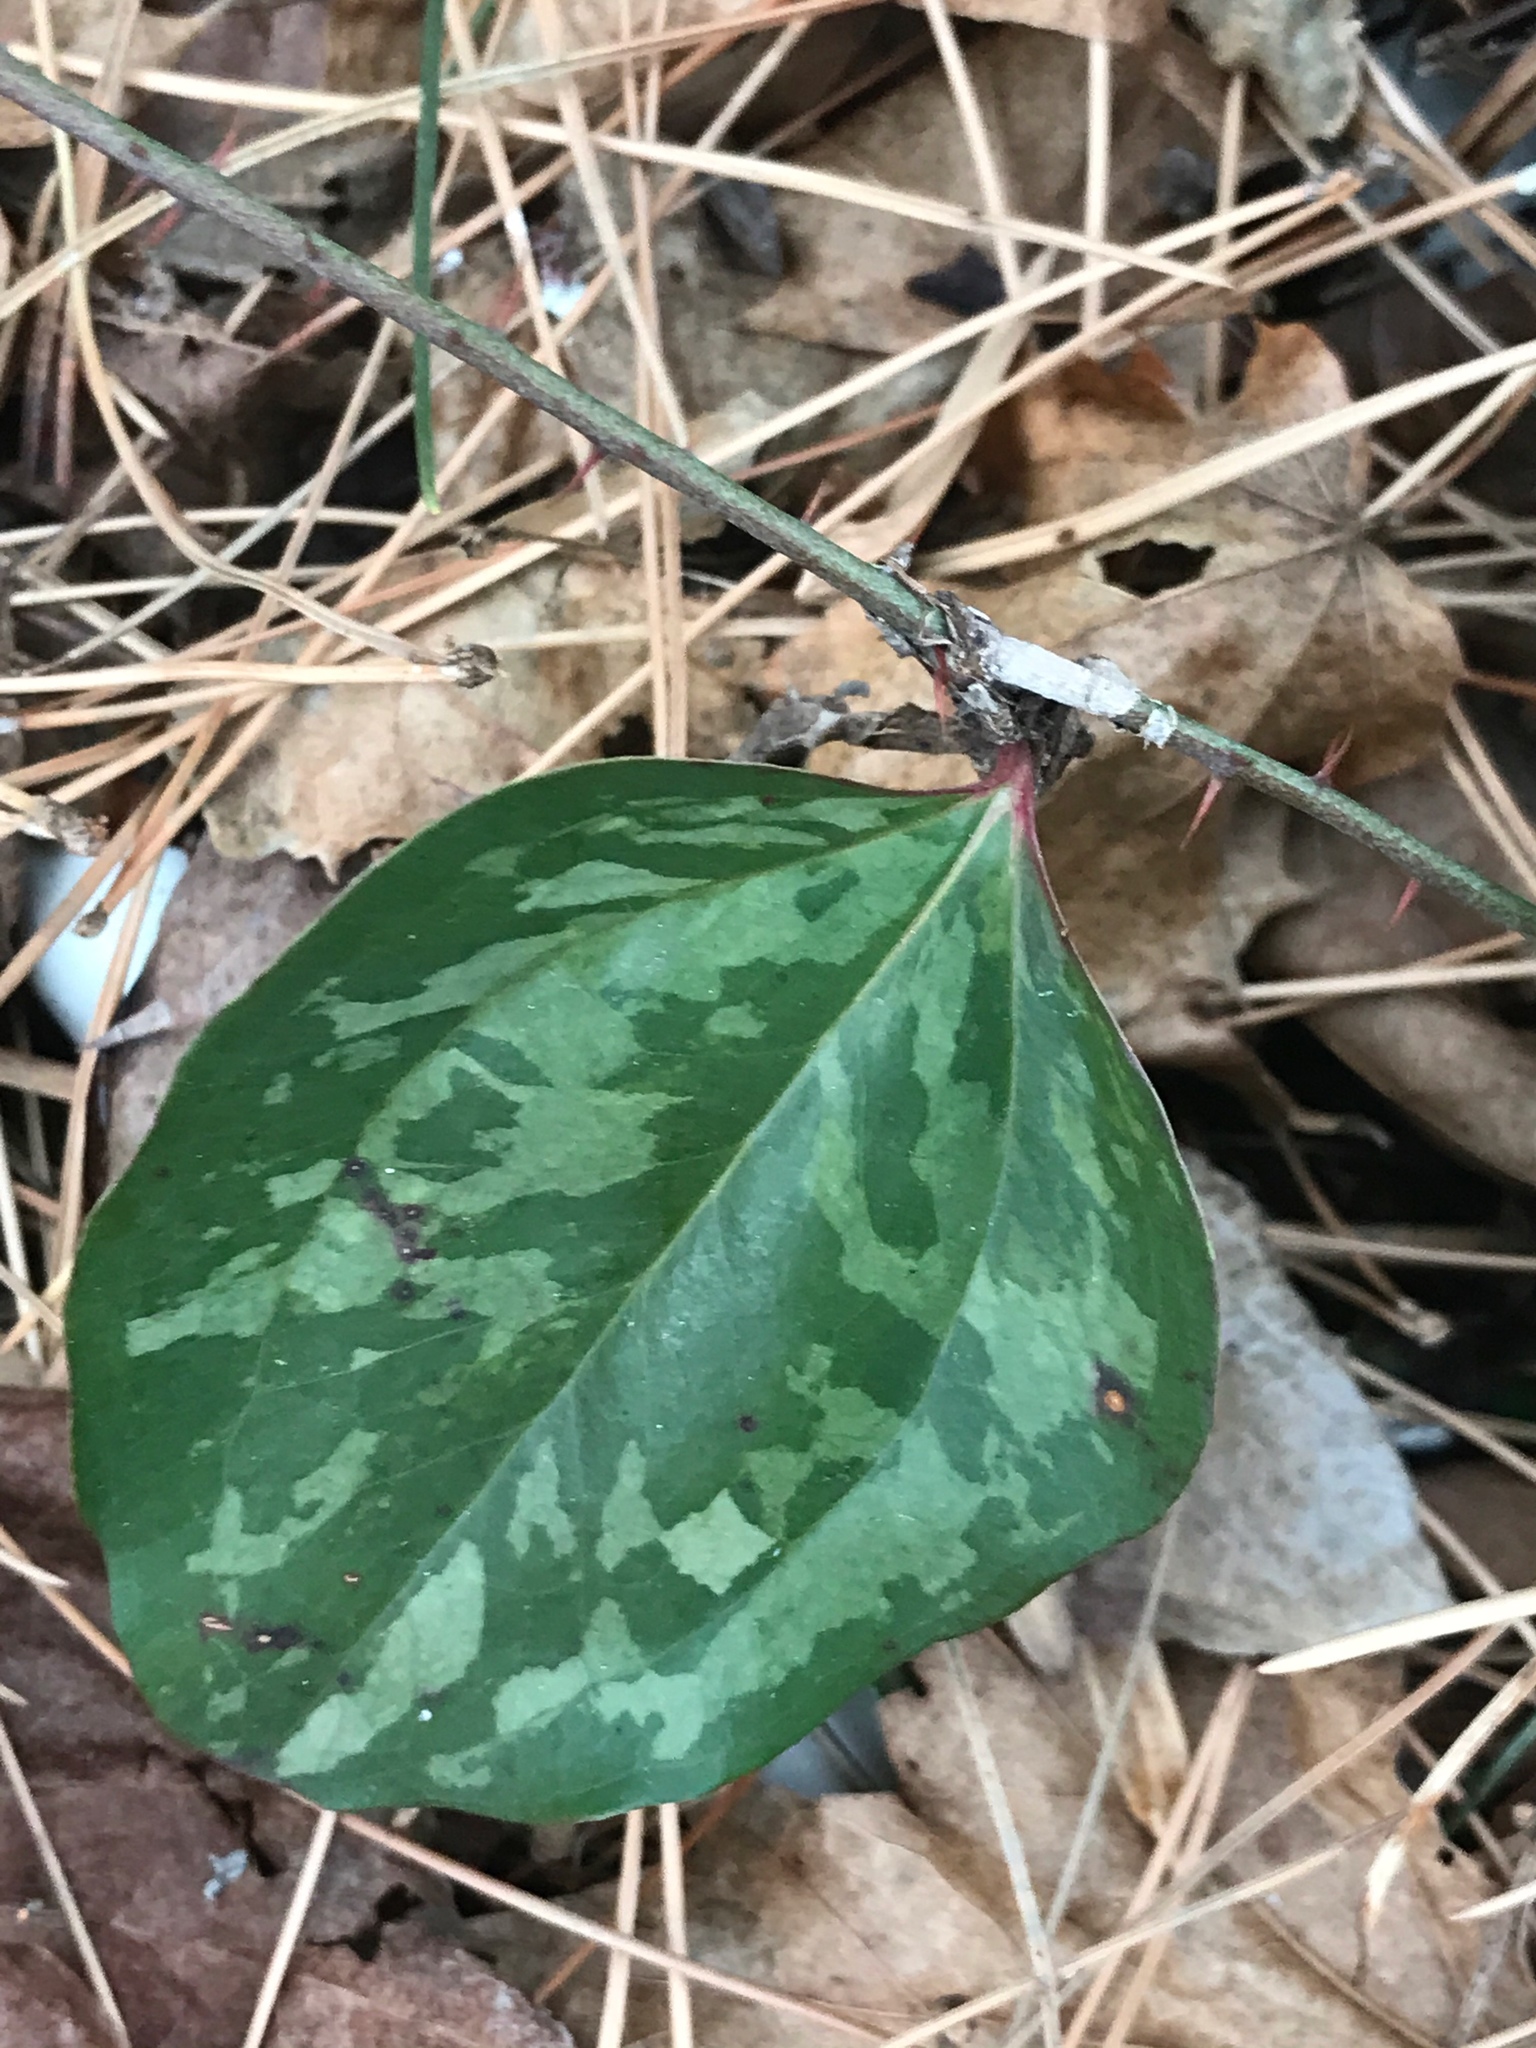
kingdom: Plantae
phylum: Tracheophyta
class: Liliopsida
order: Liliales
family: Smilacaceae
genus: Smilax
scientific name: Smilax glauca
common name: Cat greenbrier
